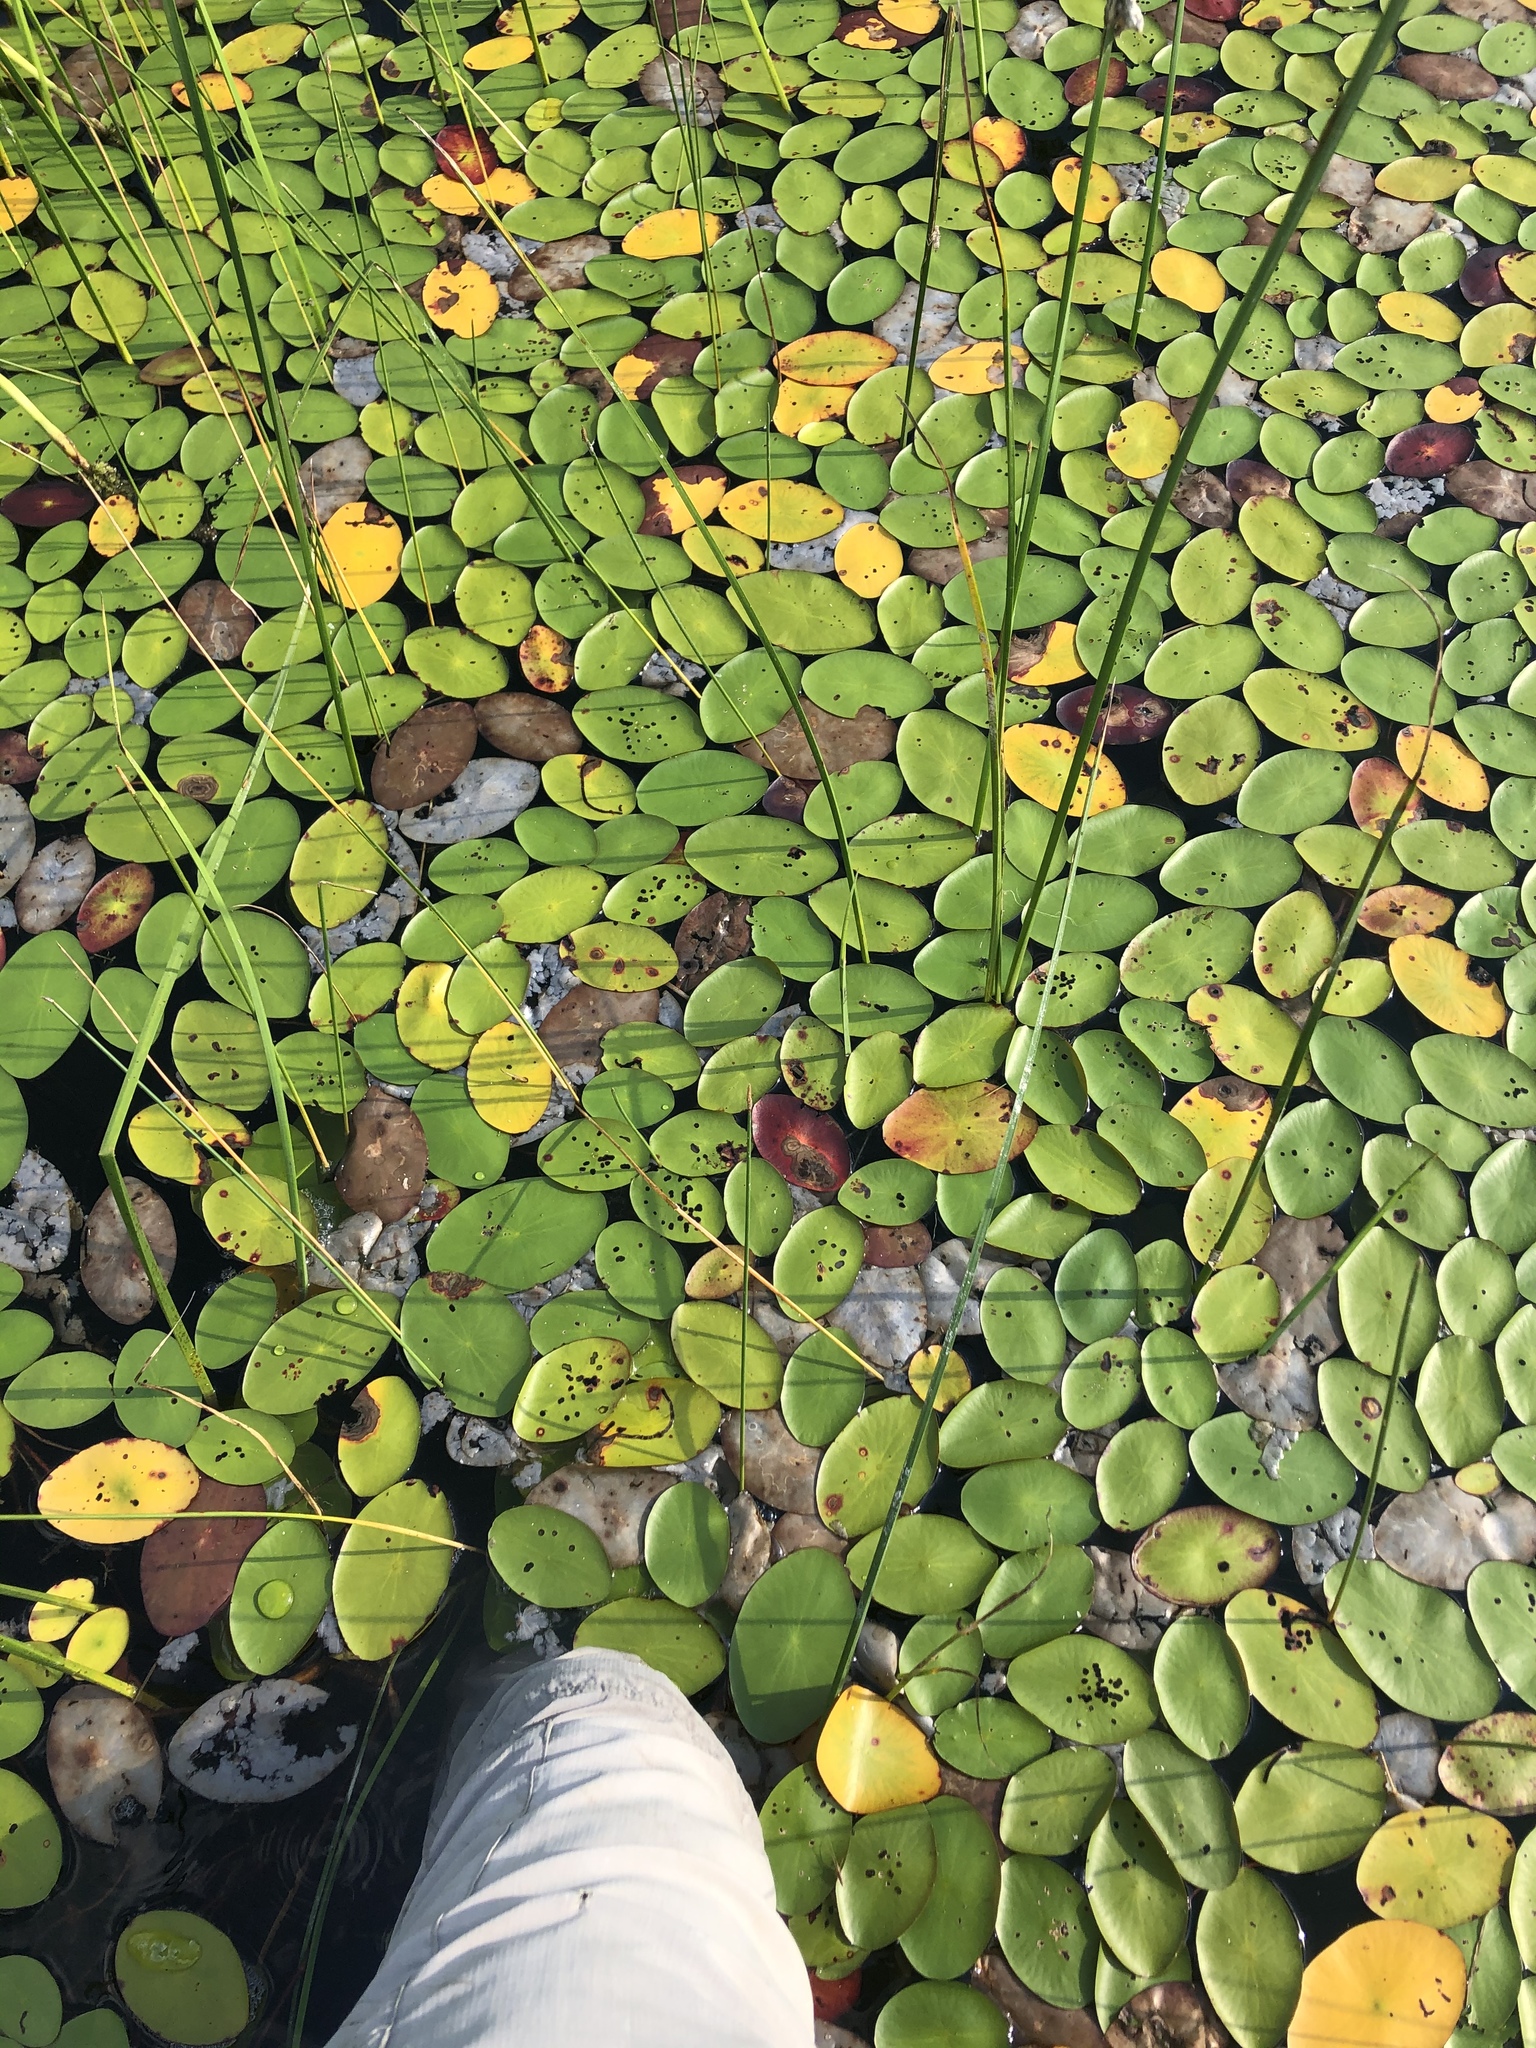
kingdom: Plantae
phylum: Tracheophyta
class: Magnoliopsida
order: Nymphaeales
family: Cabombaceae
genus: Brasenia
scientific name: Brasenia schreberi
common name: Water-shield
